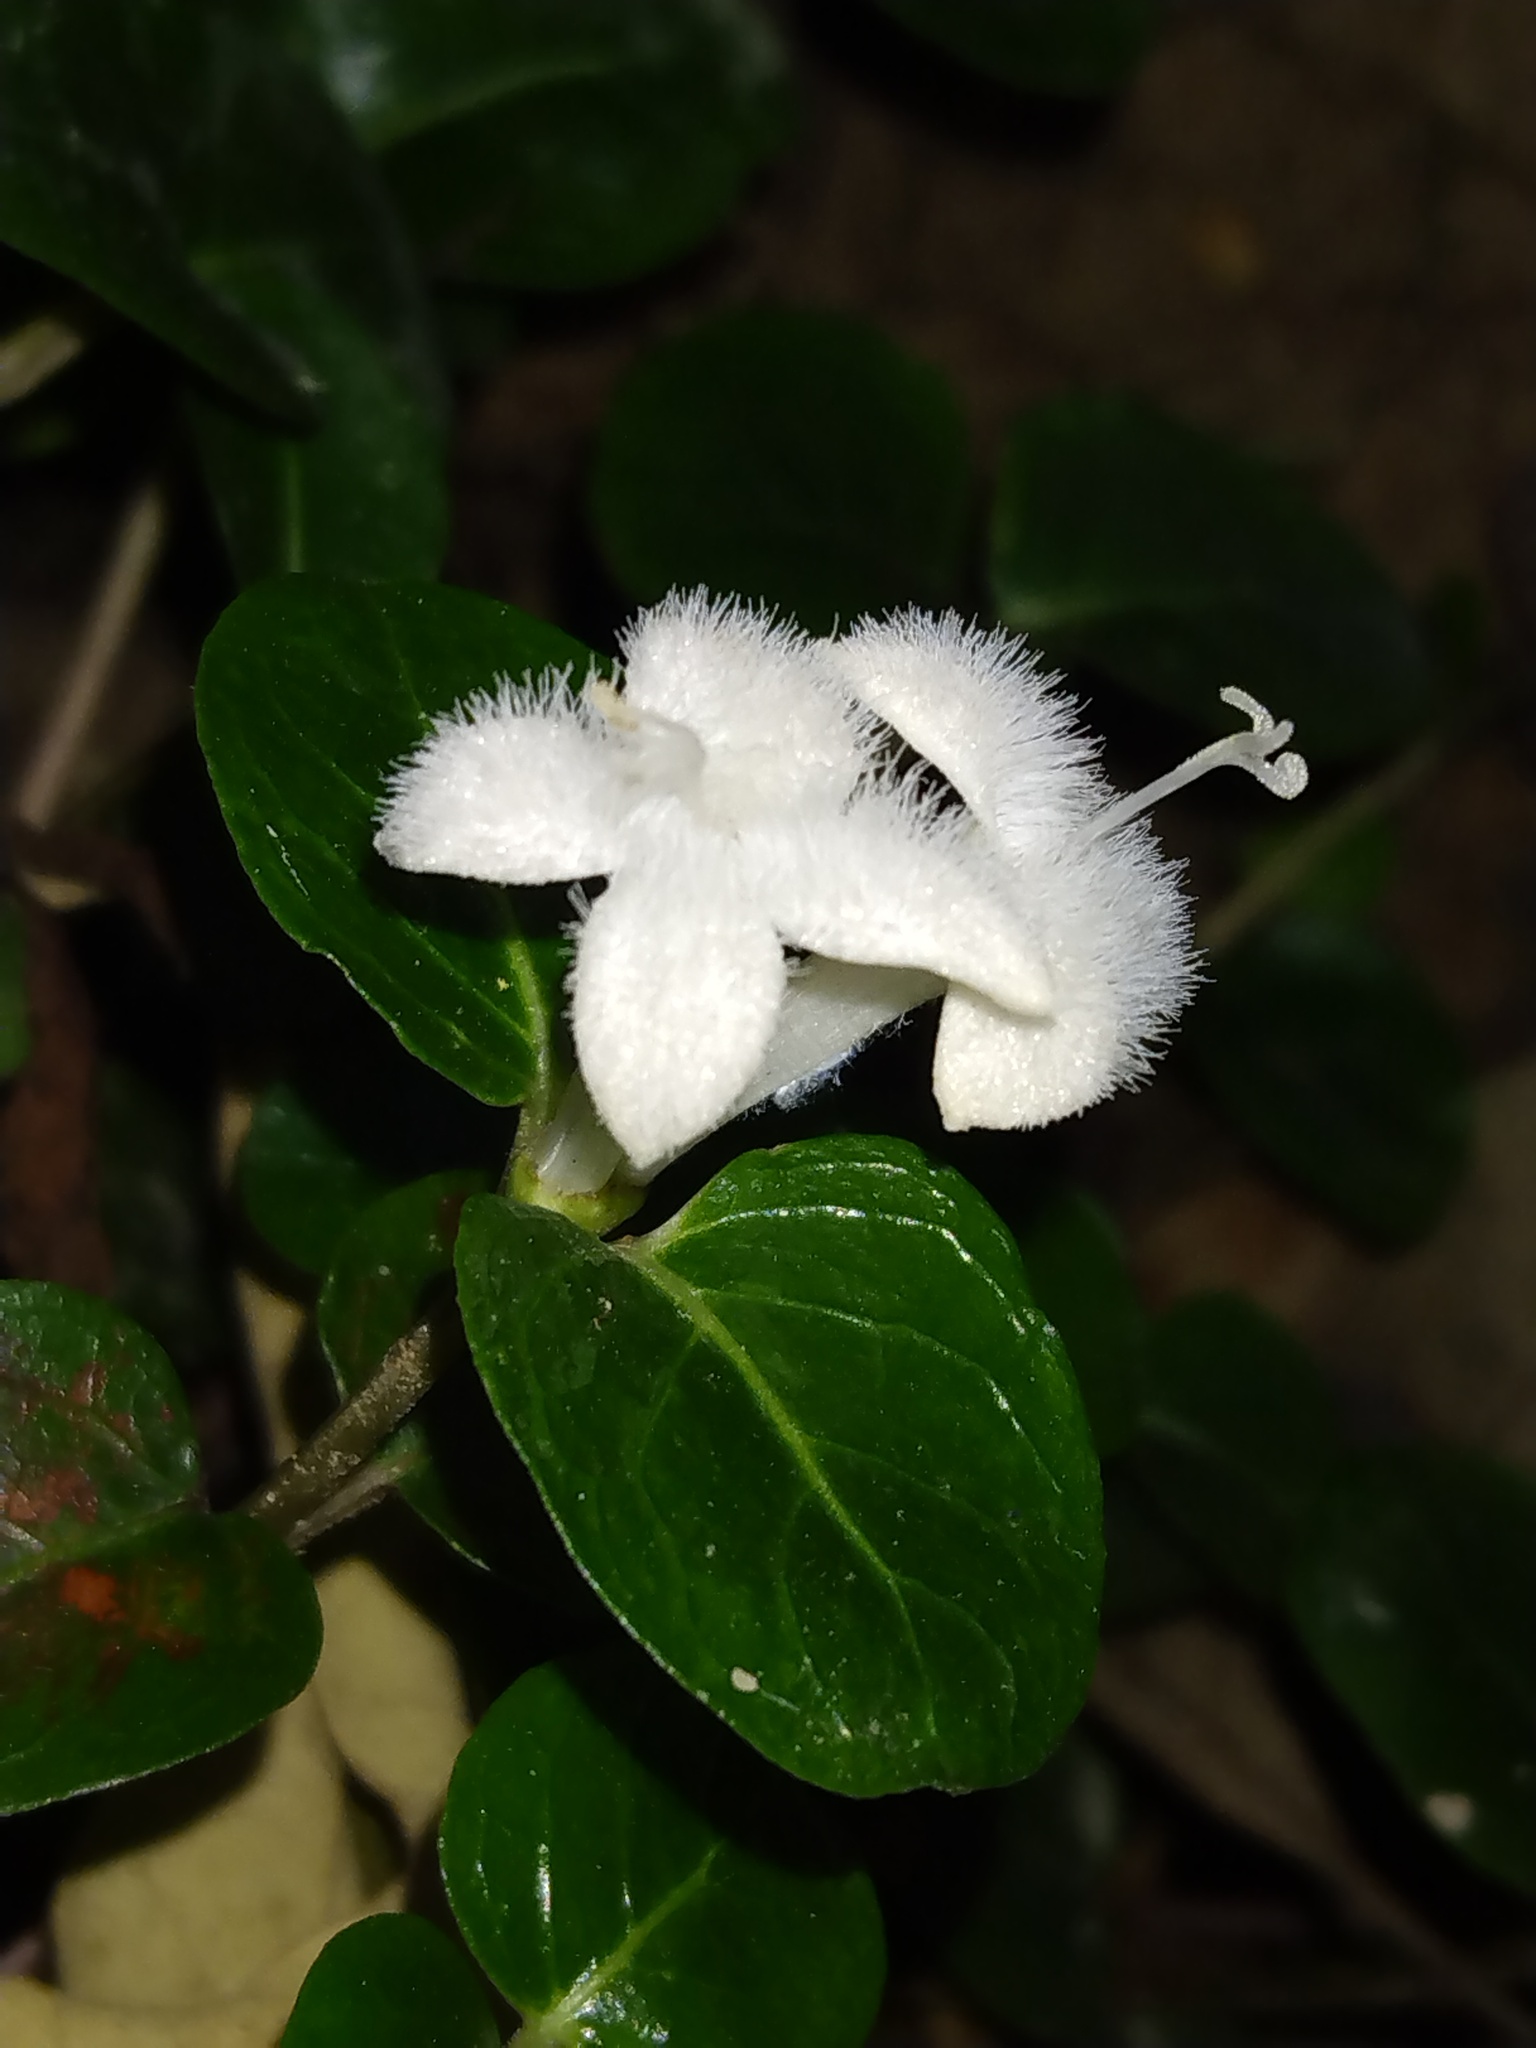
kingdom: Plantae
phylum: Tracheophyta
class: Magnoliopsida
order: Gentianales
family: Rubiaceae
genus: Mitchella
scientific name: Mitchella repens
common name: Partridge-berry
